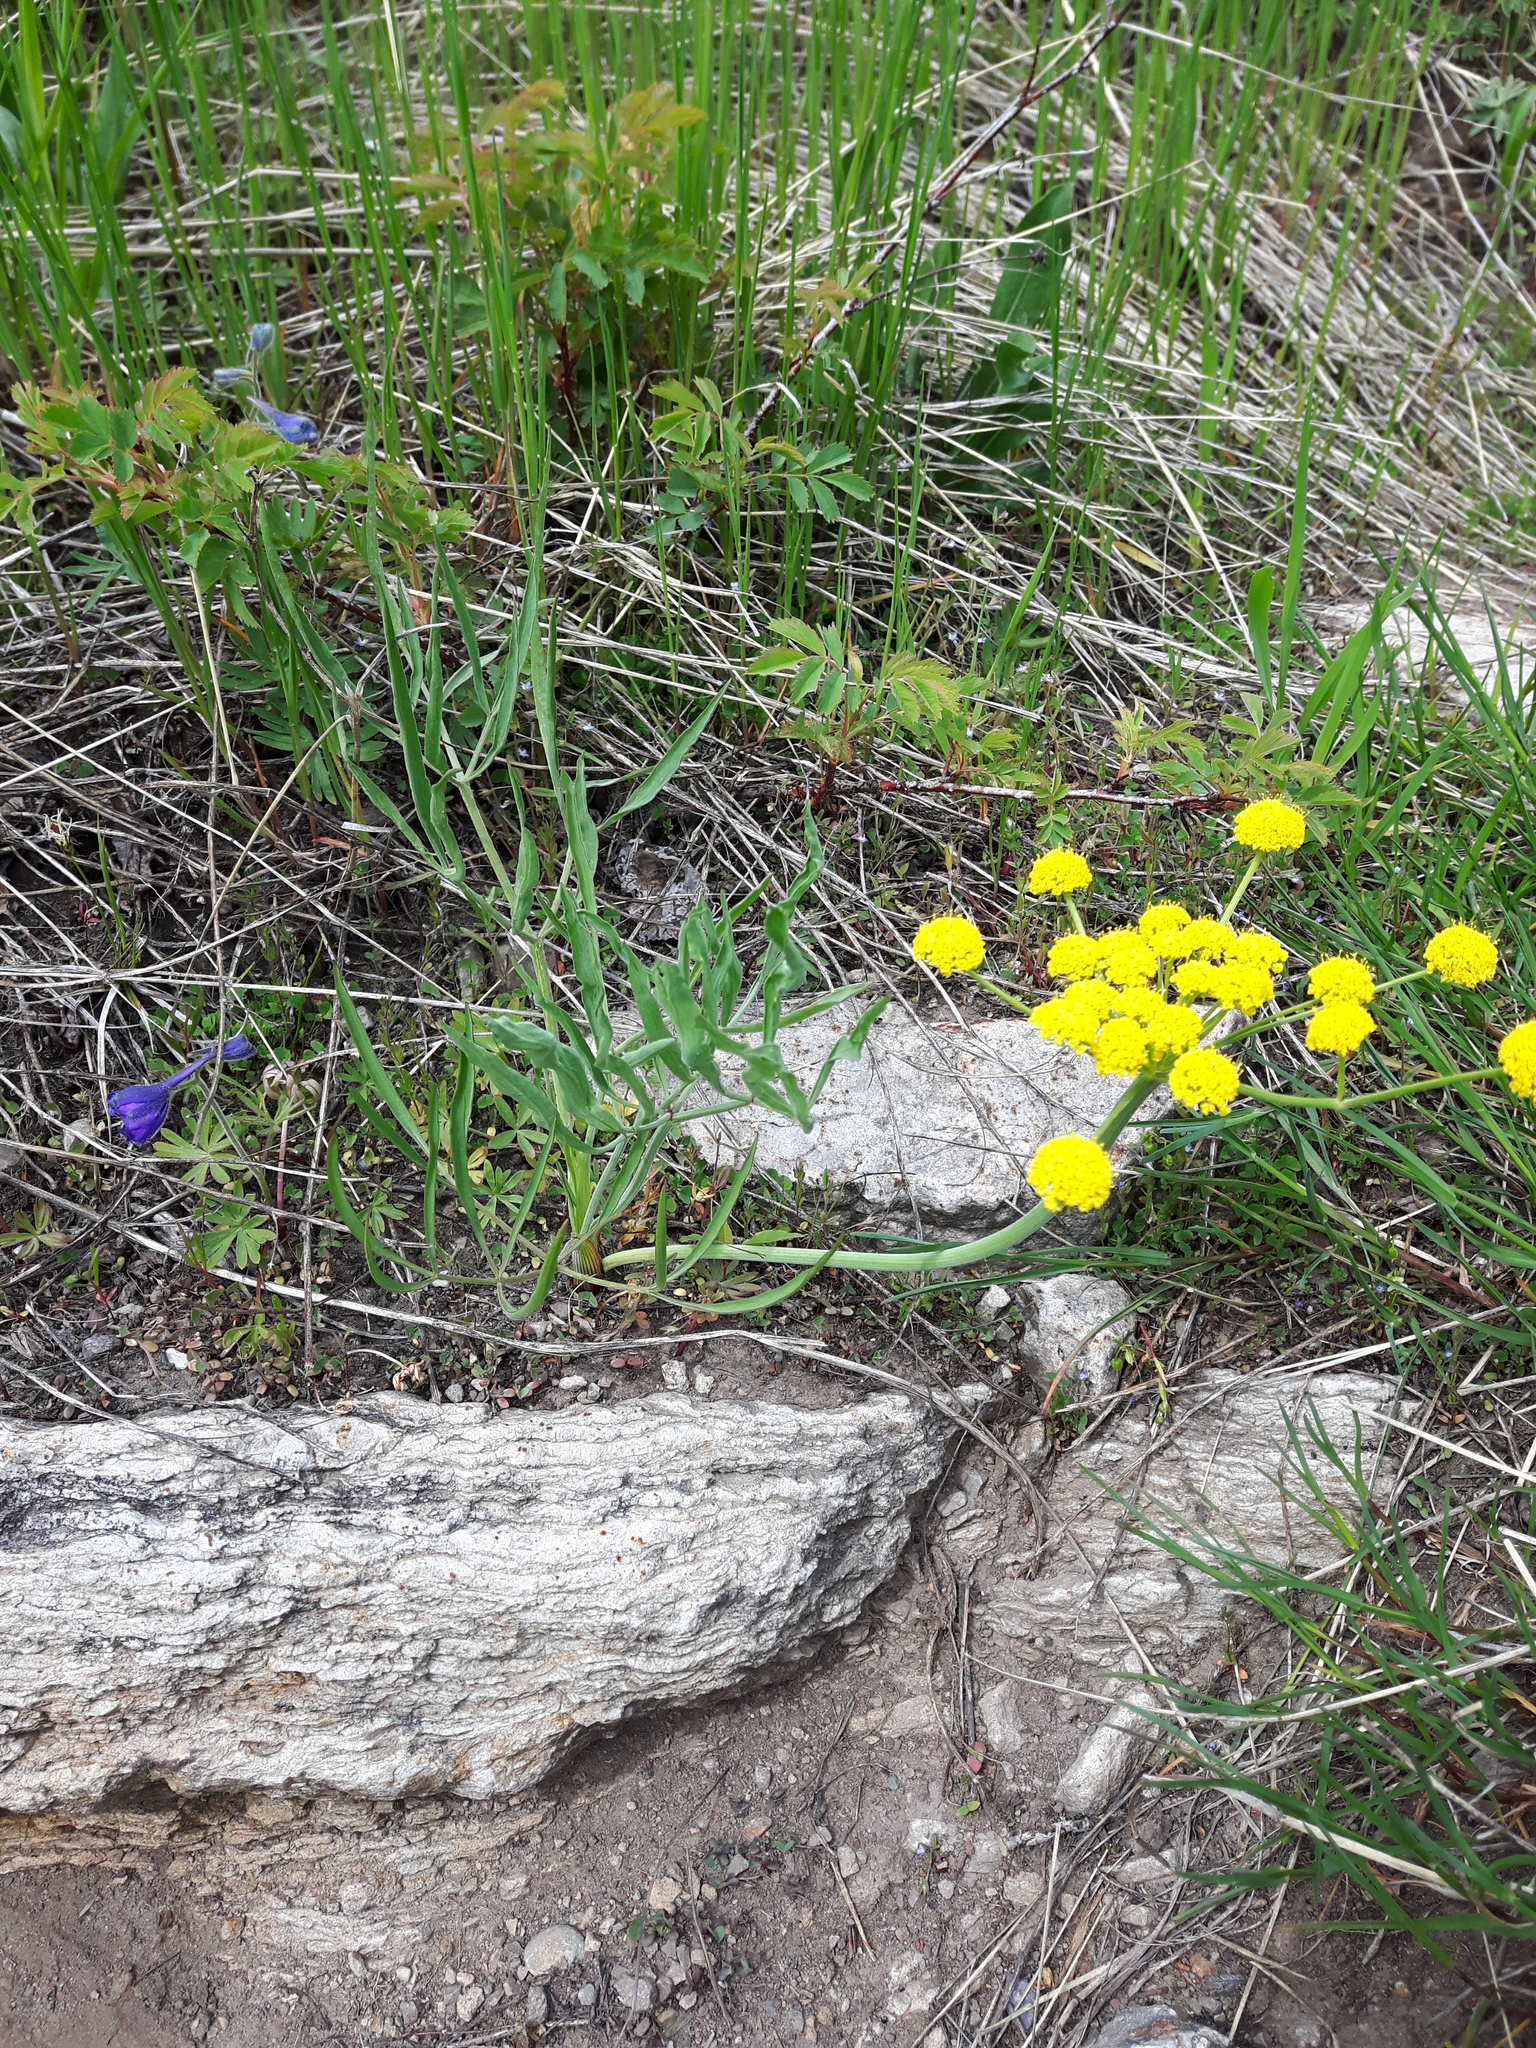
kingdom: Plantae
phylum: Tracheophyta
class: Magnoliopsida
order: Apiales
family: Apiaceae
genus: Lomatium
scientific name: Lomatium triternatum
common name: Ternate lomatium
